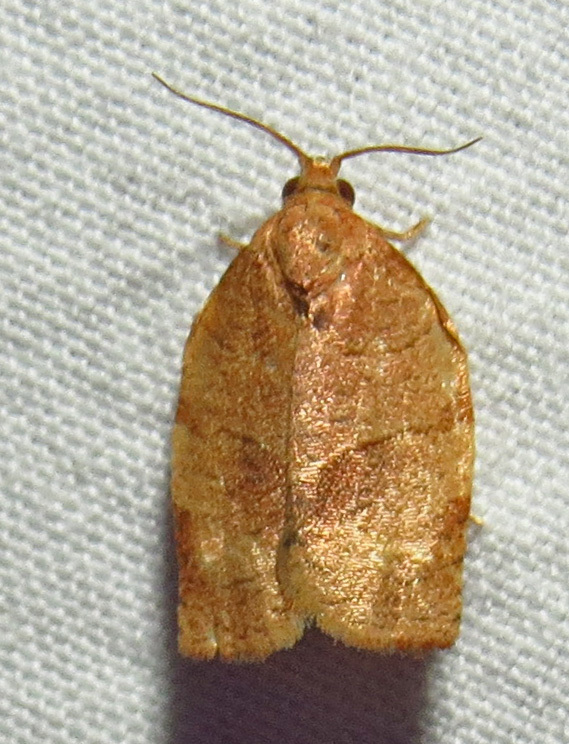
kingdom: Animalia
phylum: Arthropoda
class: Insecta
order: Lepidoptera
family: Tortricidae
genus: Choristoneura
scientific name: Choristoneura rosaceana
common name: Oblique-banded leafroller moth
